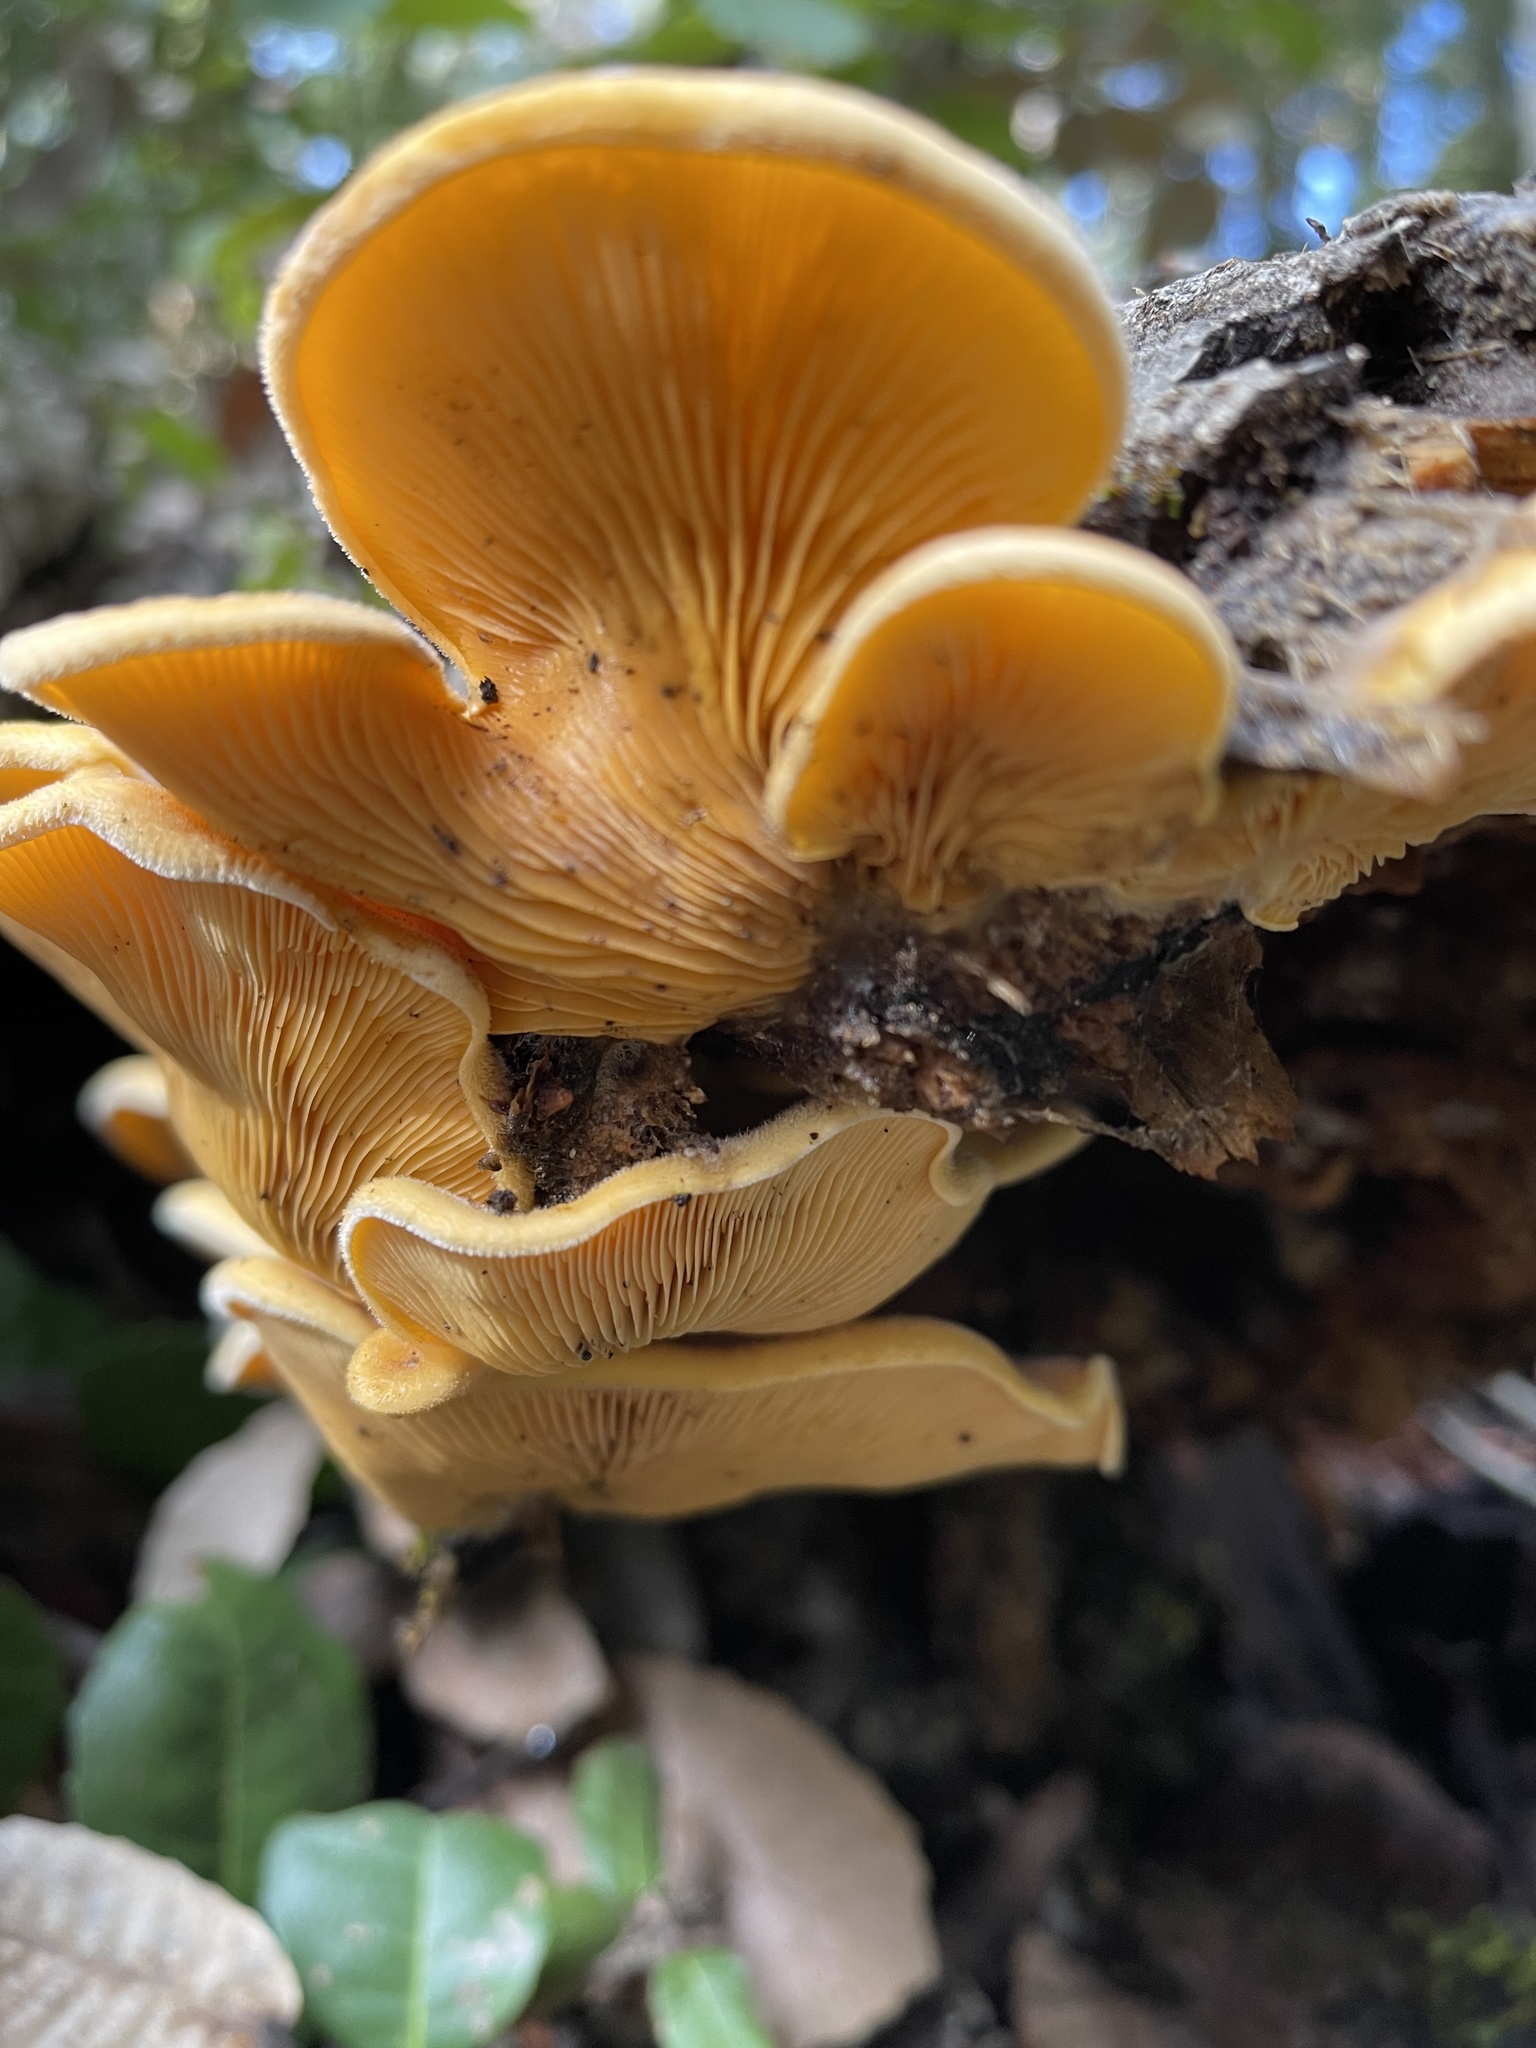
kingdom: Fungi
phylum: Basidiomycota
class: Agaricomycetes
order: Agaricales
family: Phyllotopsidaceae
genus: Phyllotopsis
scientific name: Phyllotopsis nidulans
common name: Orange mock oyster
